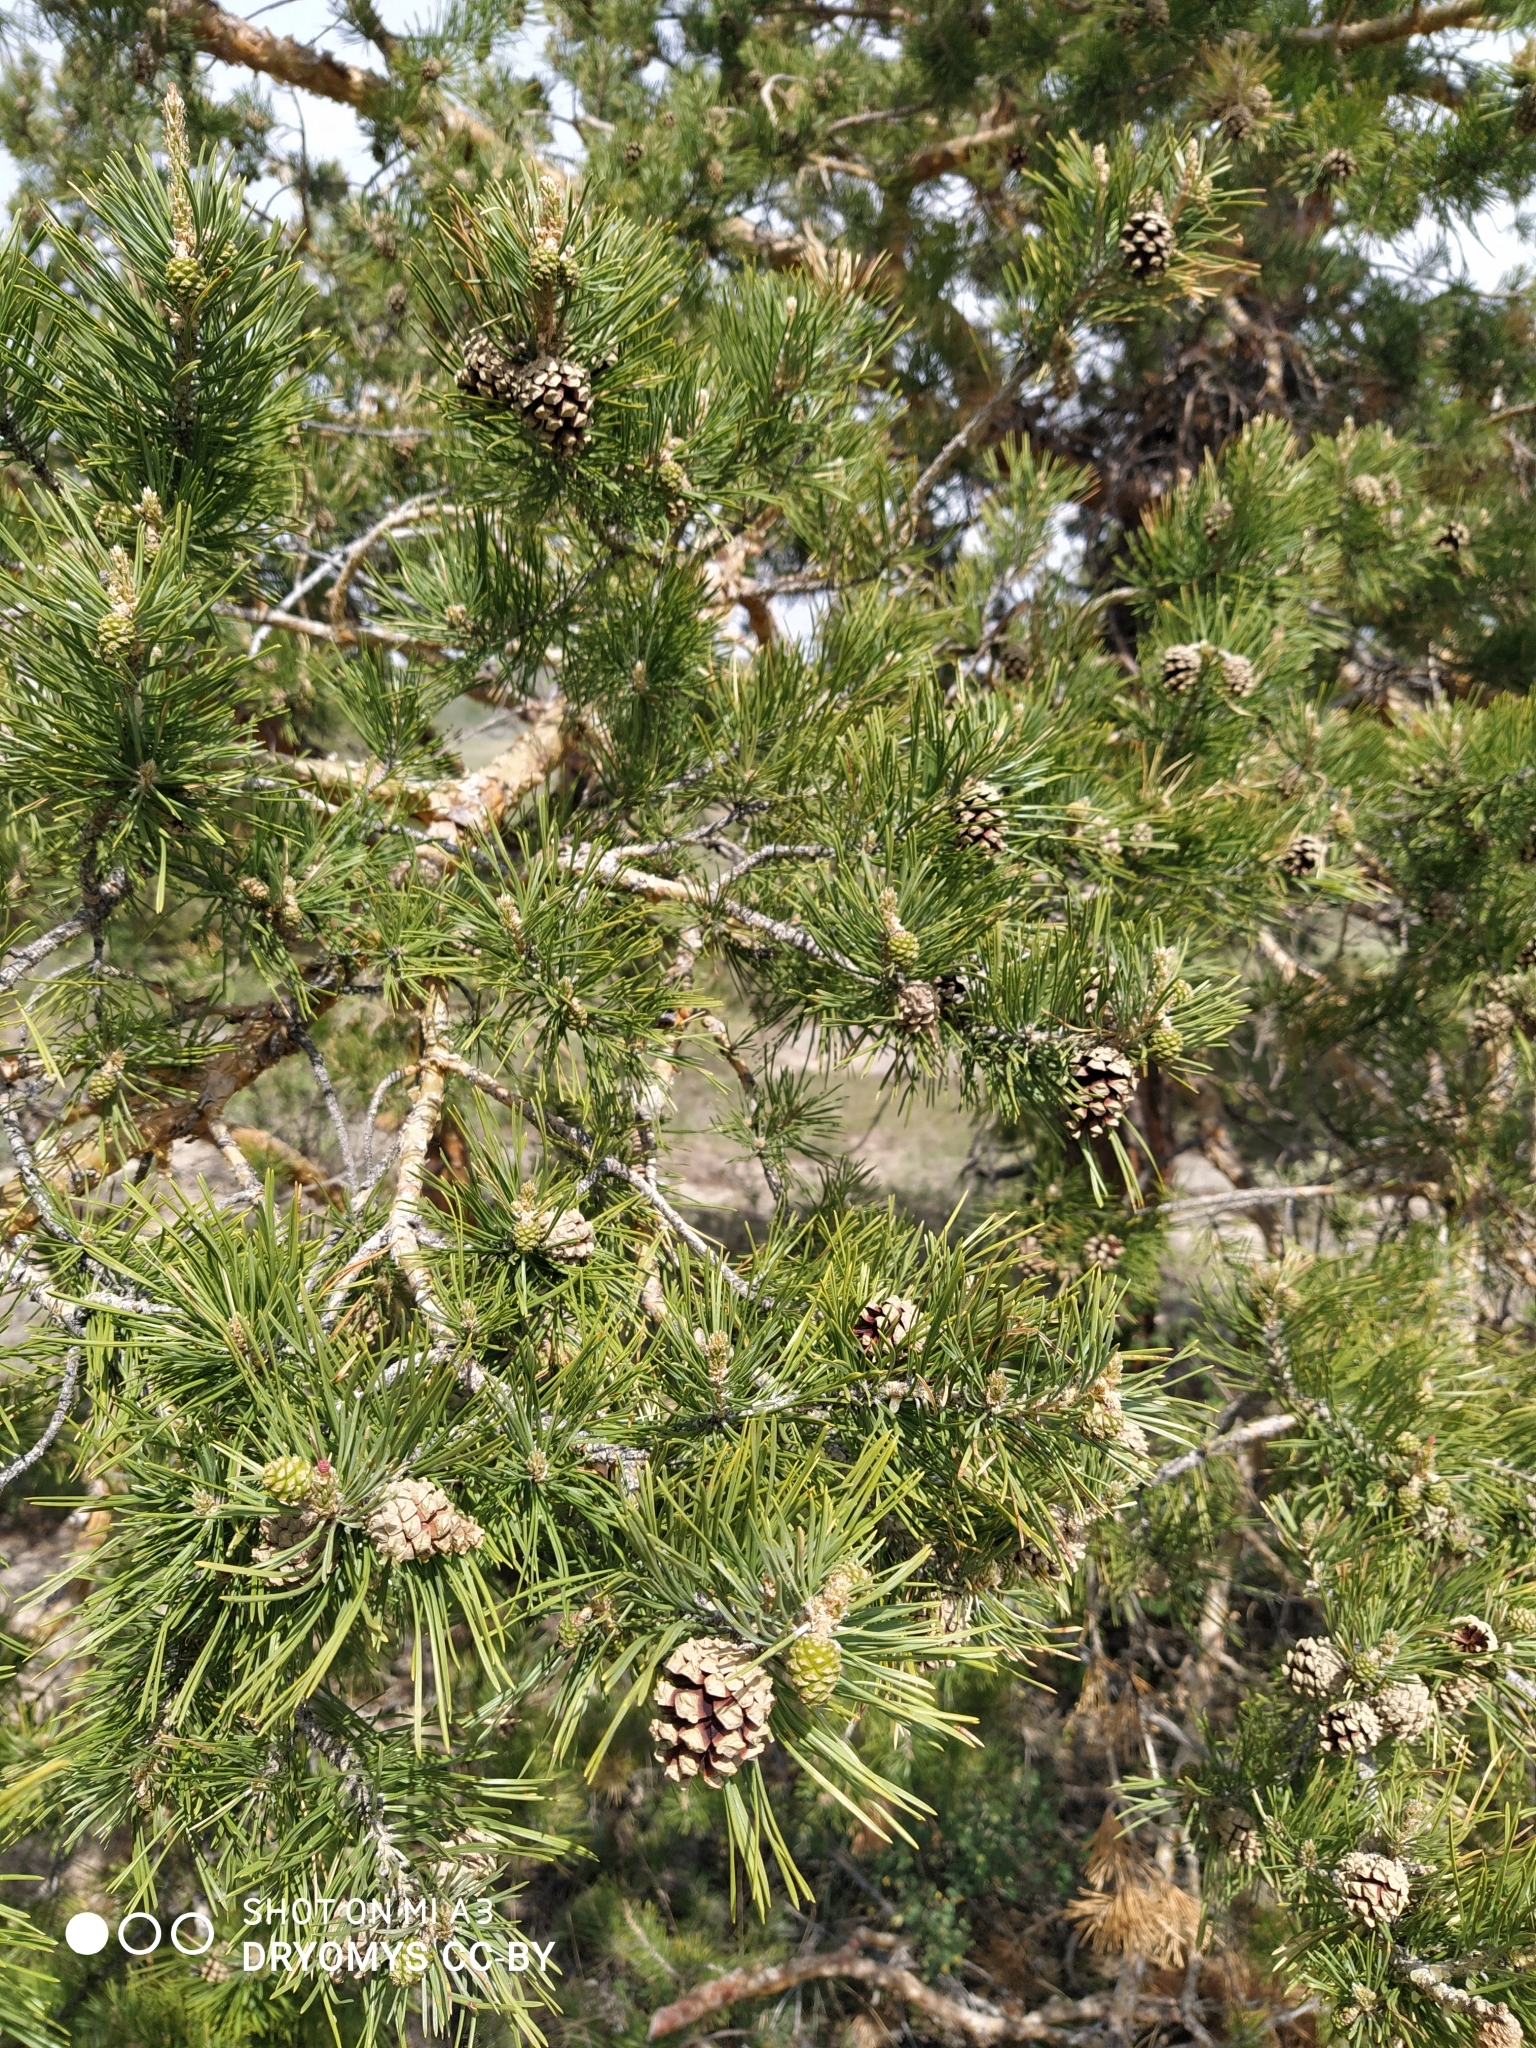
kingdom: Plantae
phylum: Tracheophyta
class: Pinopsida
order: Pinales
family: Pinaceae
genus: Pinus
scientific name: Pinus sylvestris
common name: Scots pine
